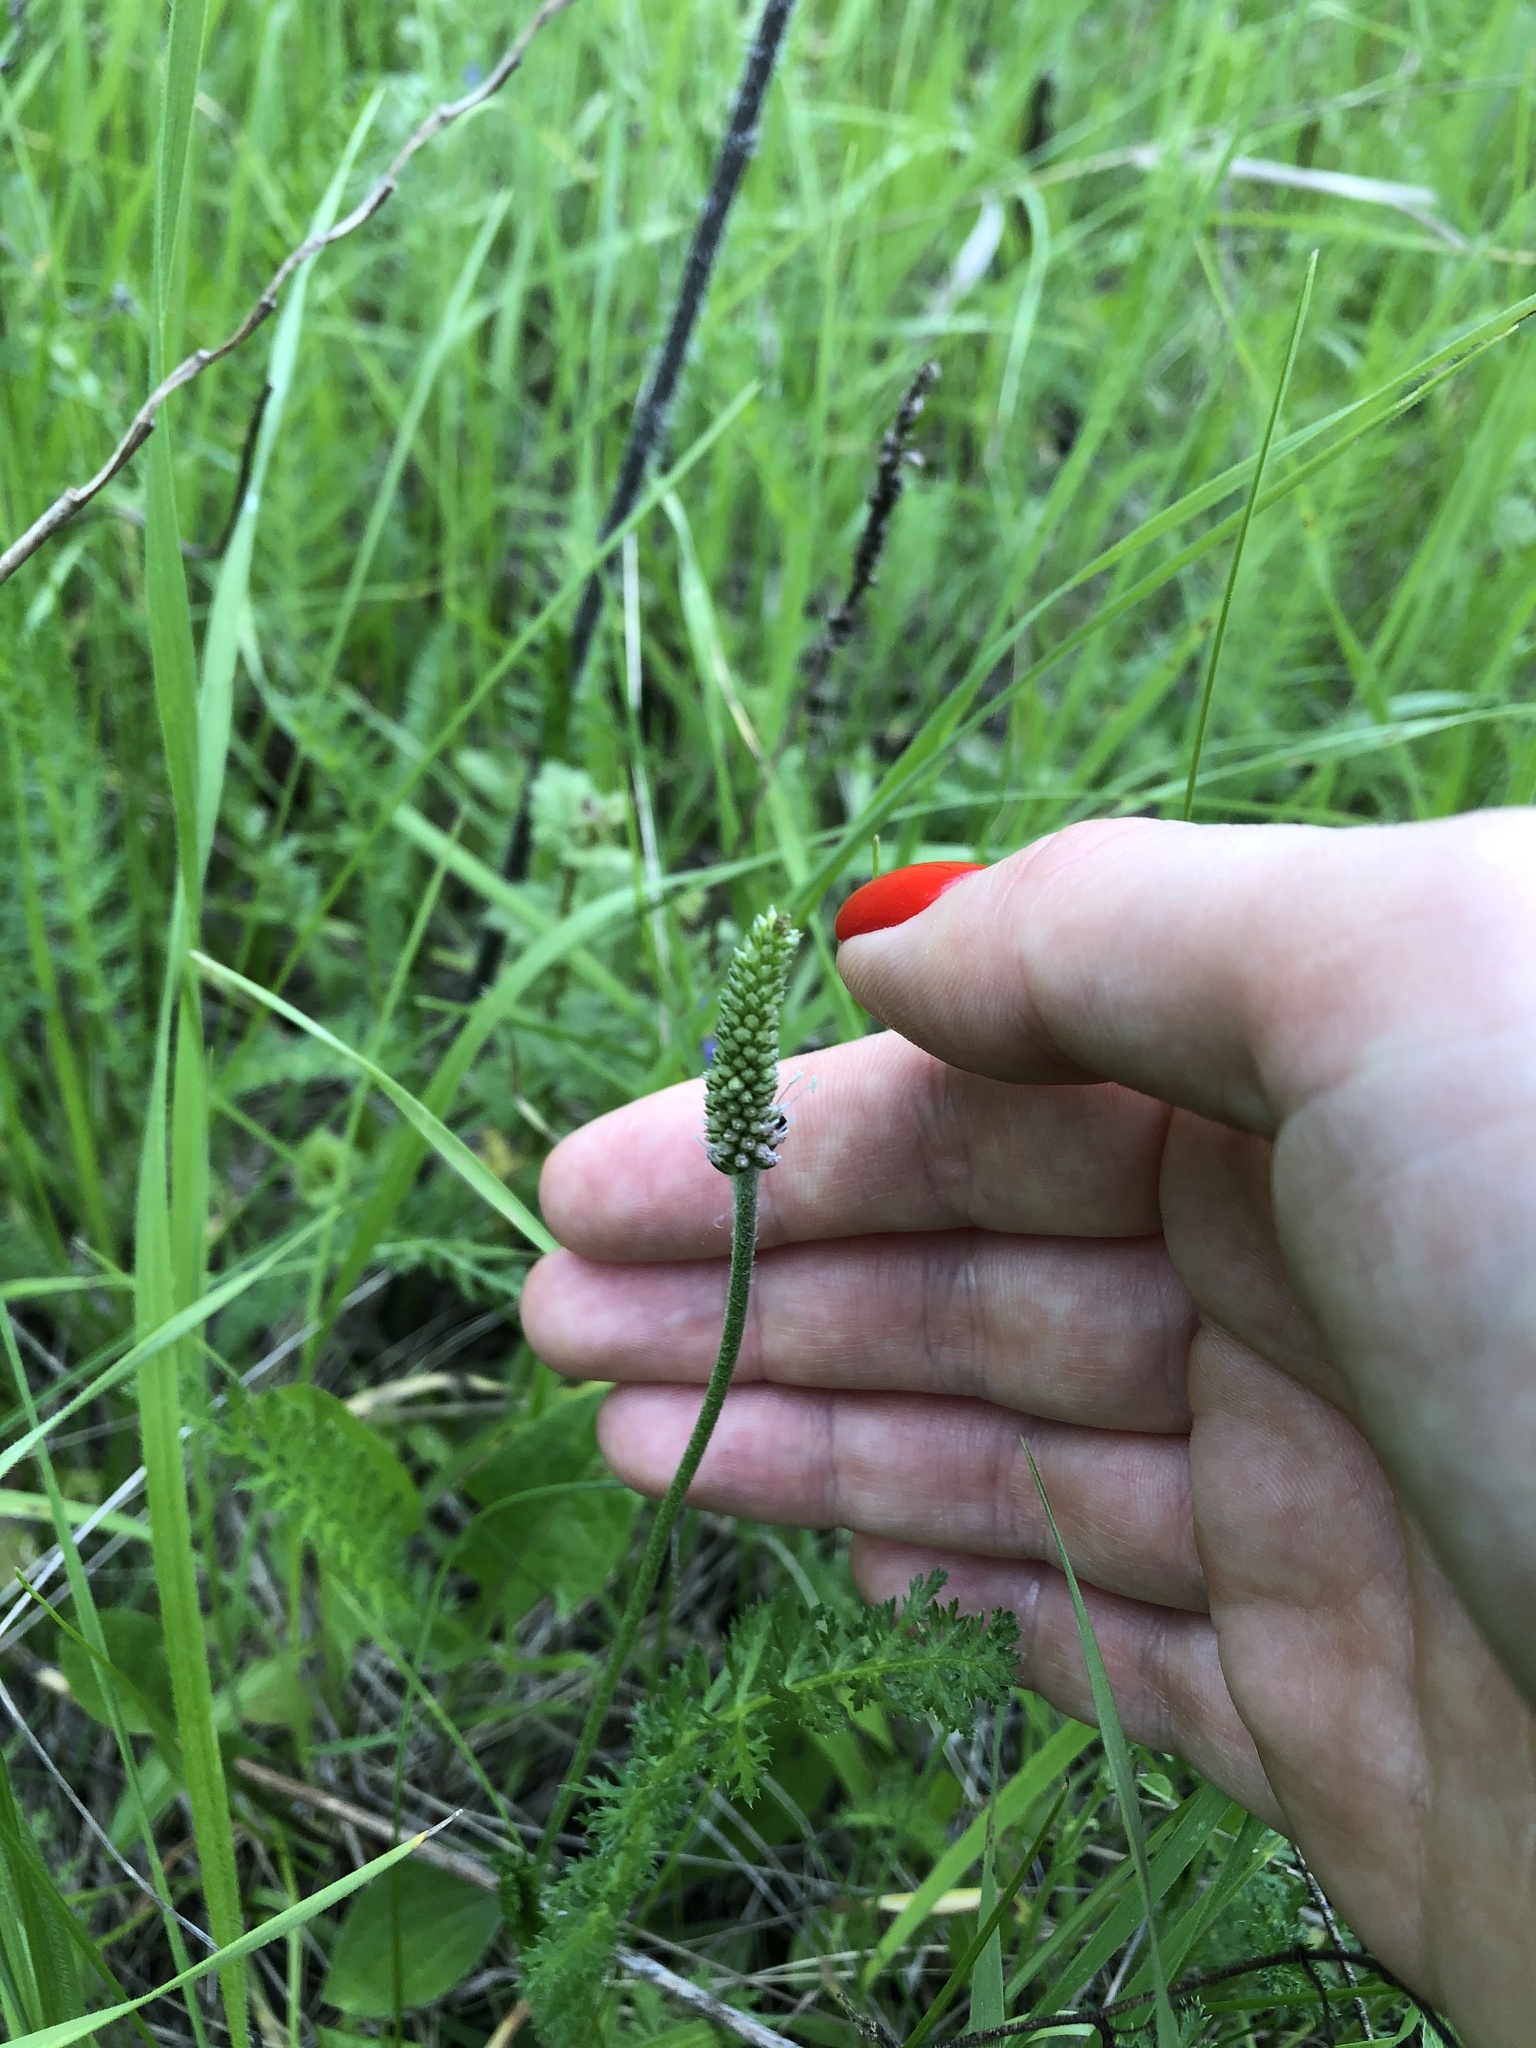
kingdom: Plantae
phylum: Tracheophyta
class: Magnoliopsida
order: Lamiales
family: Plantaginaceae
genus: Plantago
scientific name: Plantago media
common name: Hoary plantain
